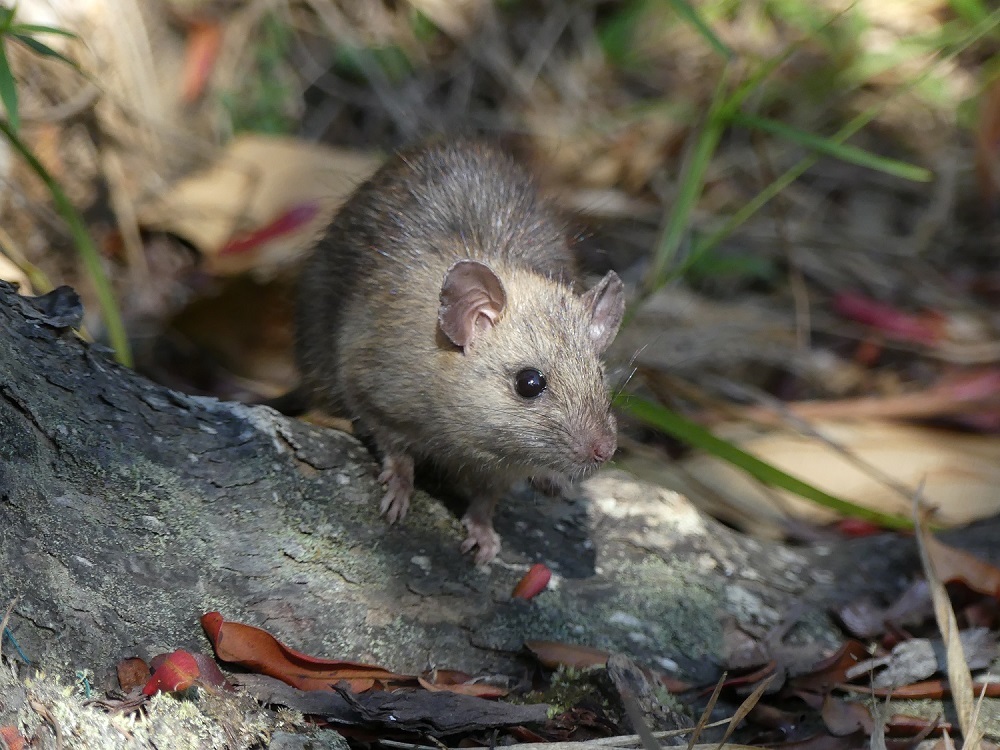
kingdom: Animalia
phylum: Chordata
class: Mammalia
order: Rodentia
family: Muridae
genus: Rattus
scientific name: Rattus rattus
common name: Black rat
